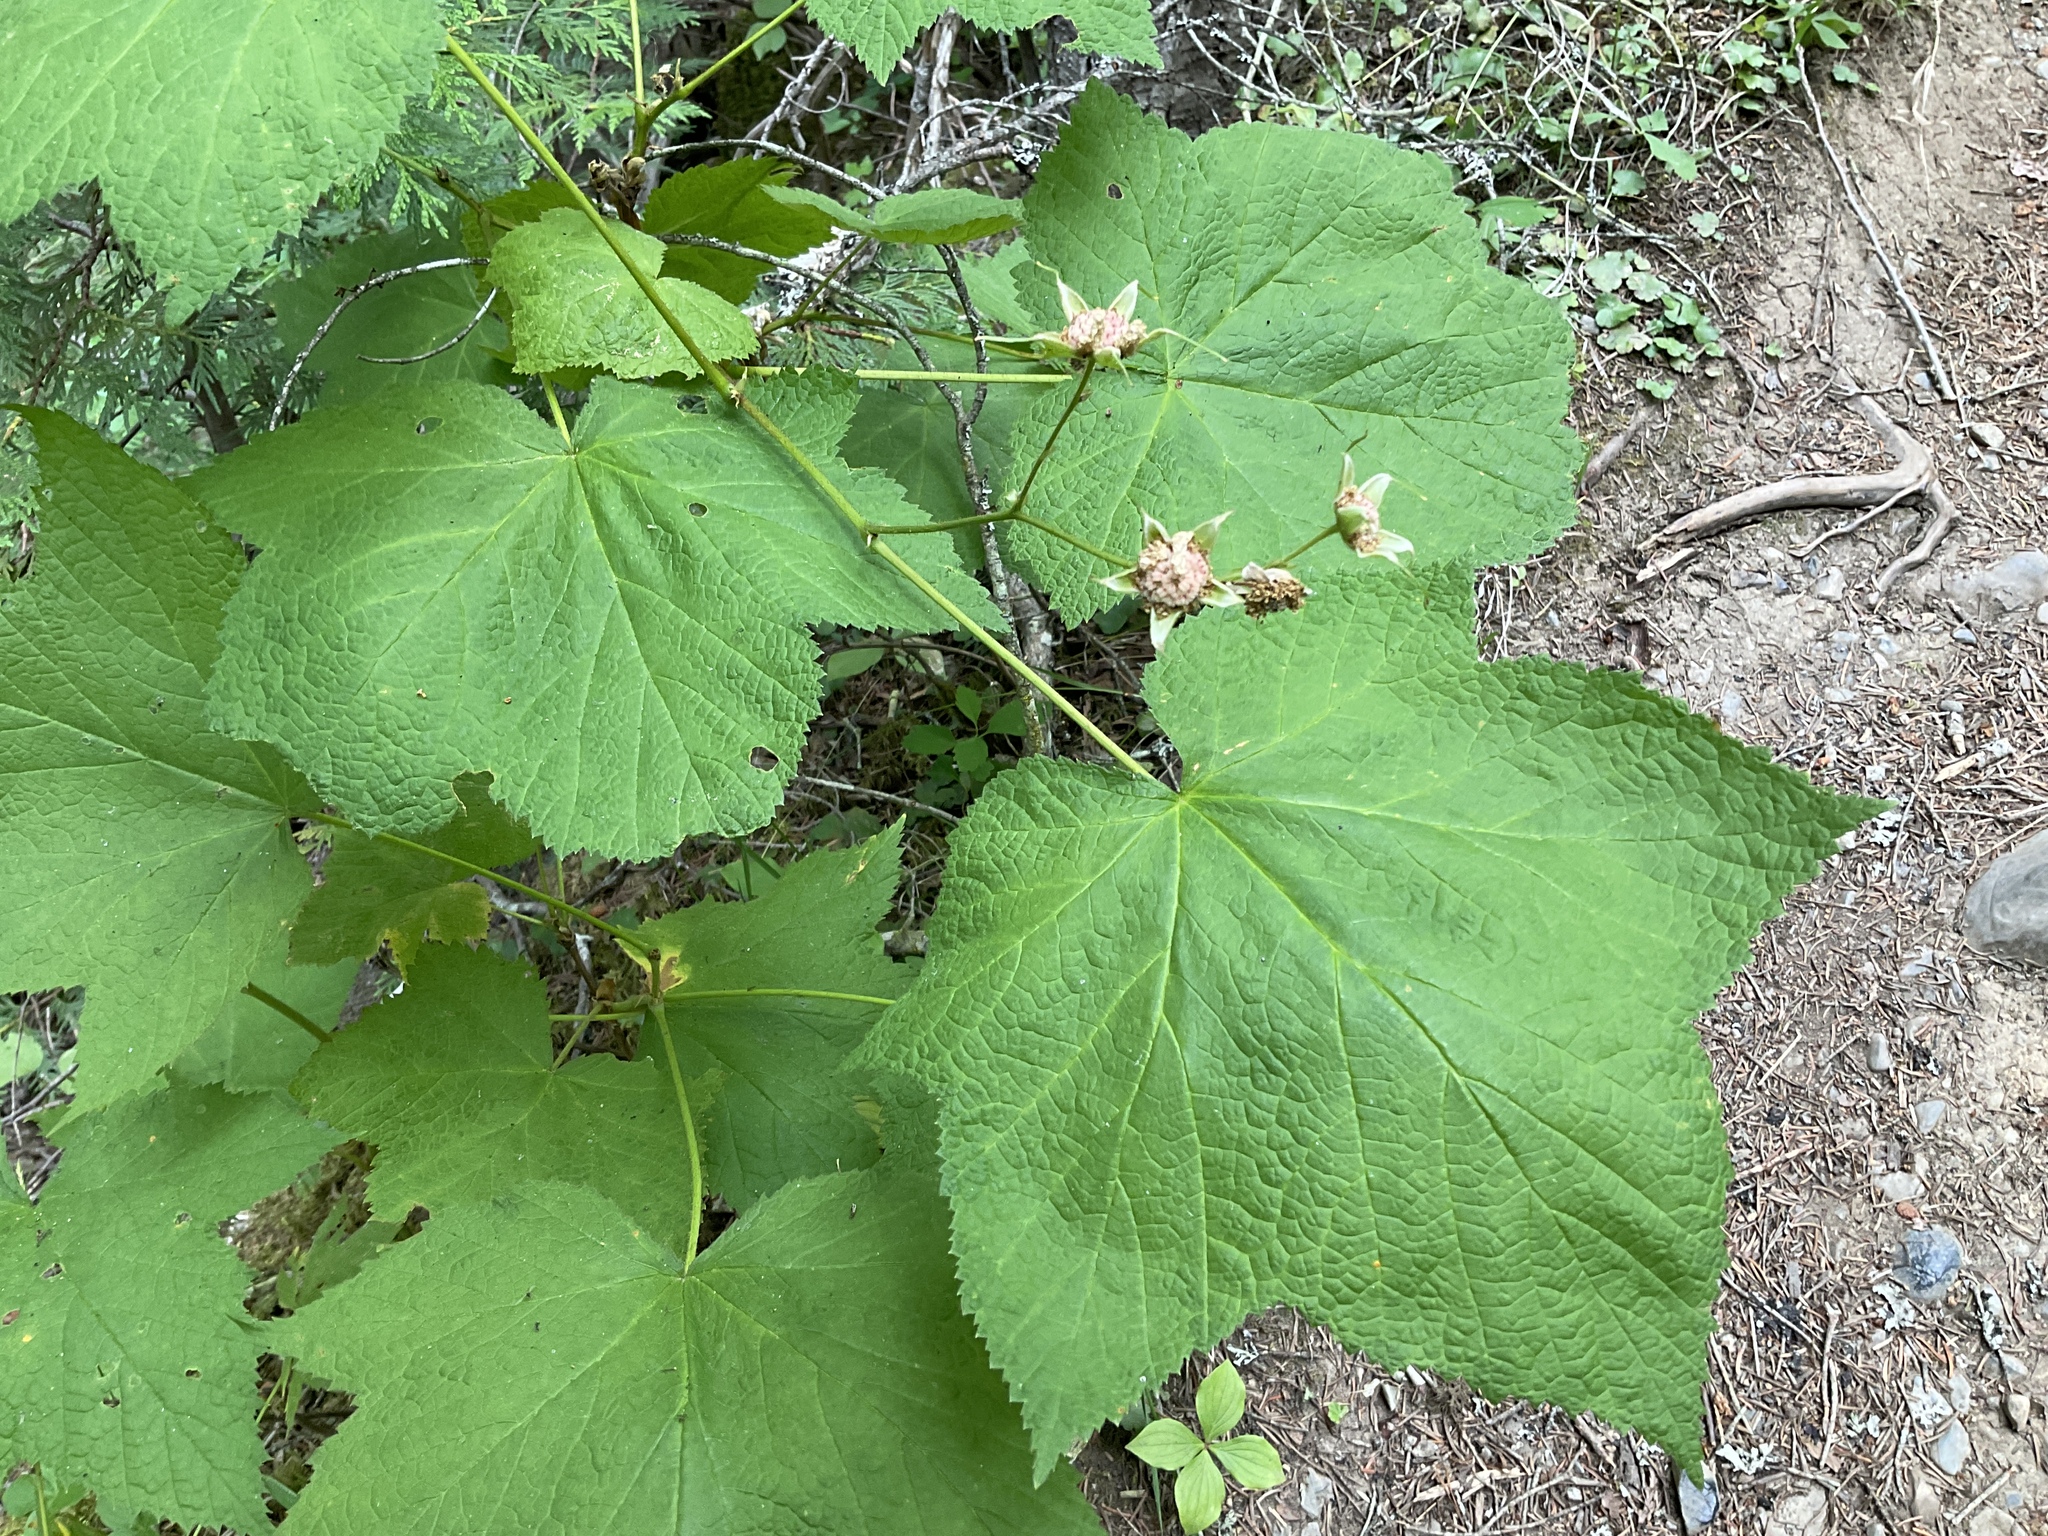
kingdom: Plantae
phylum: Tracheophyta
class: Magnoliopsida
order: Rosales
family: Rosaceae
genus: Rubus
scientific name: Rubus parviflorus
